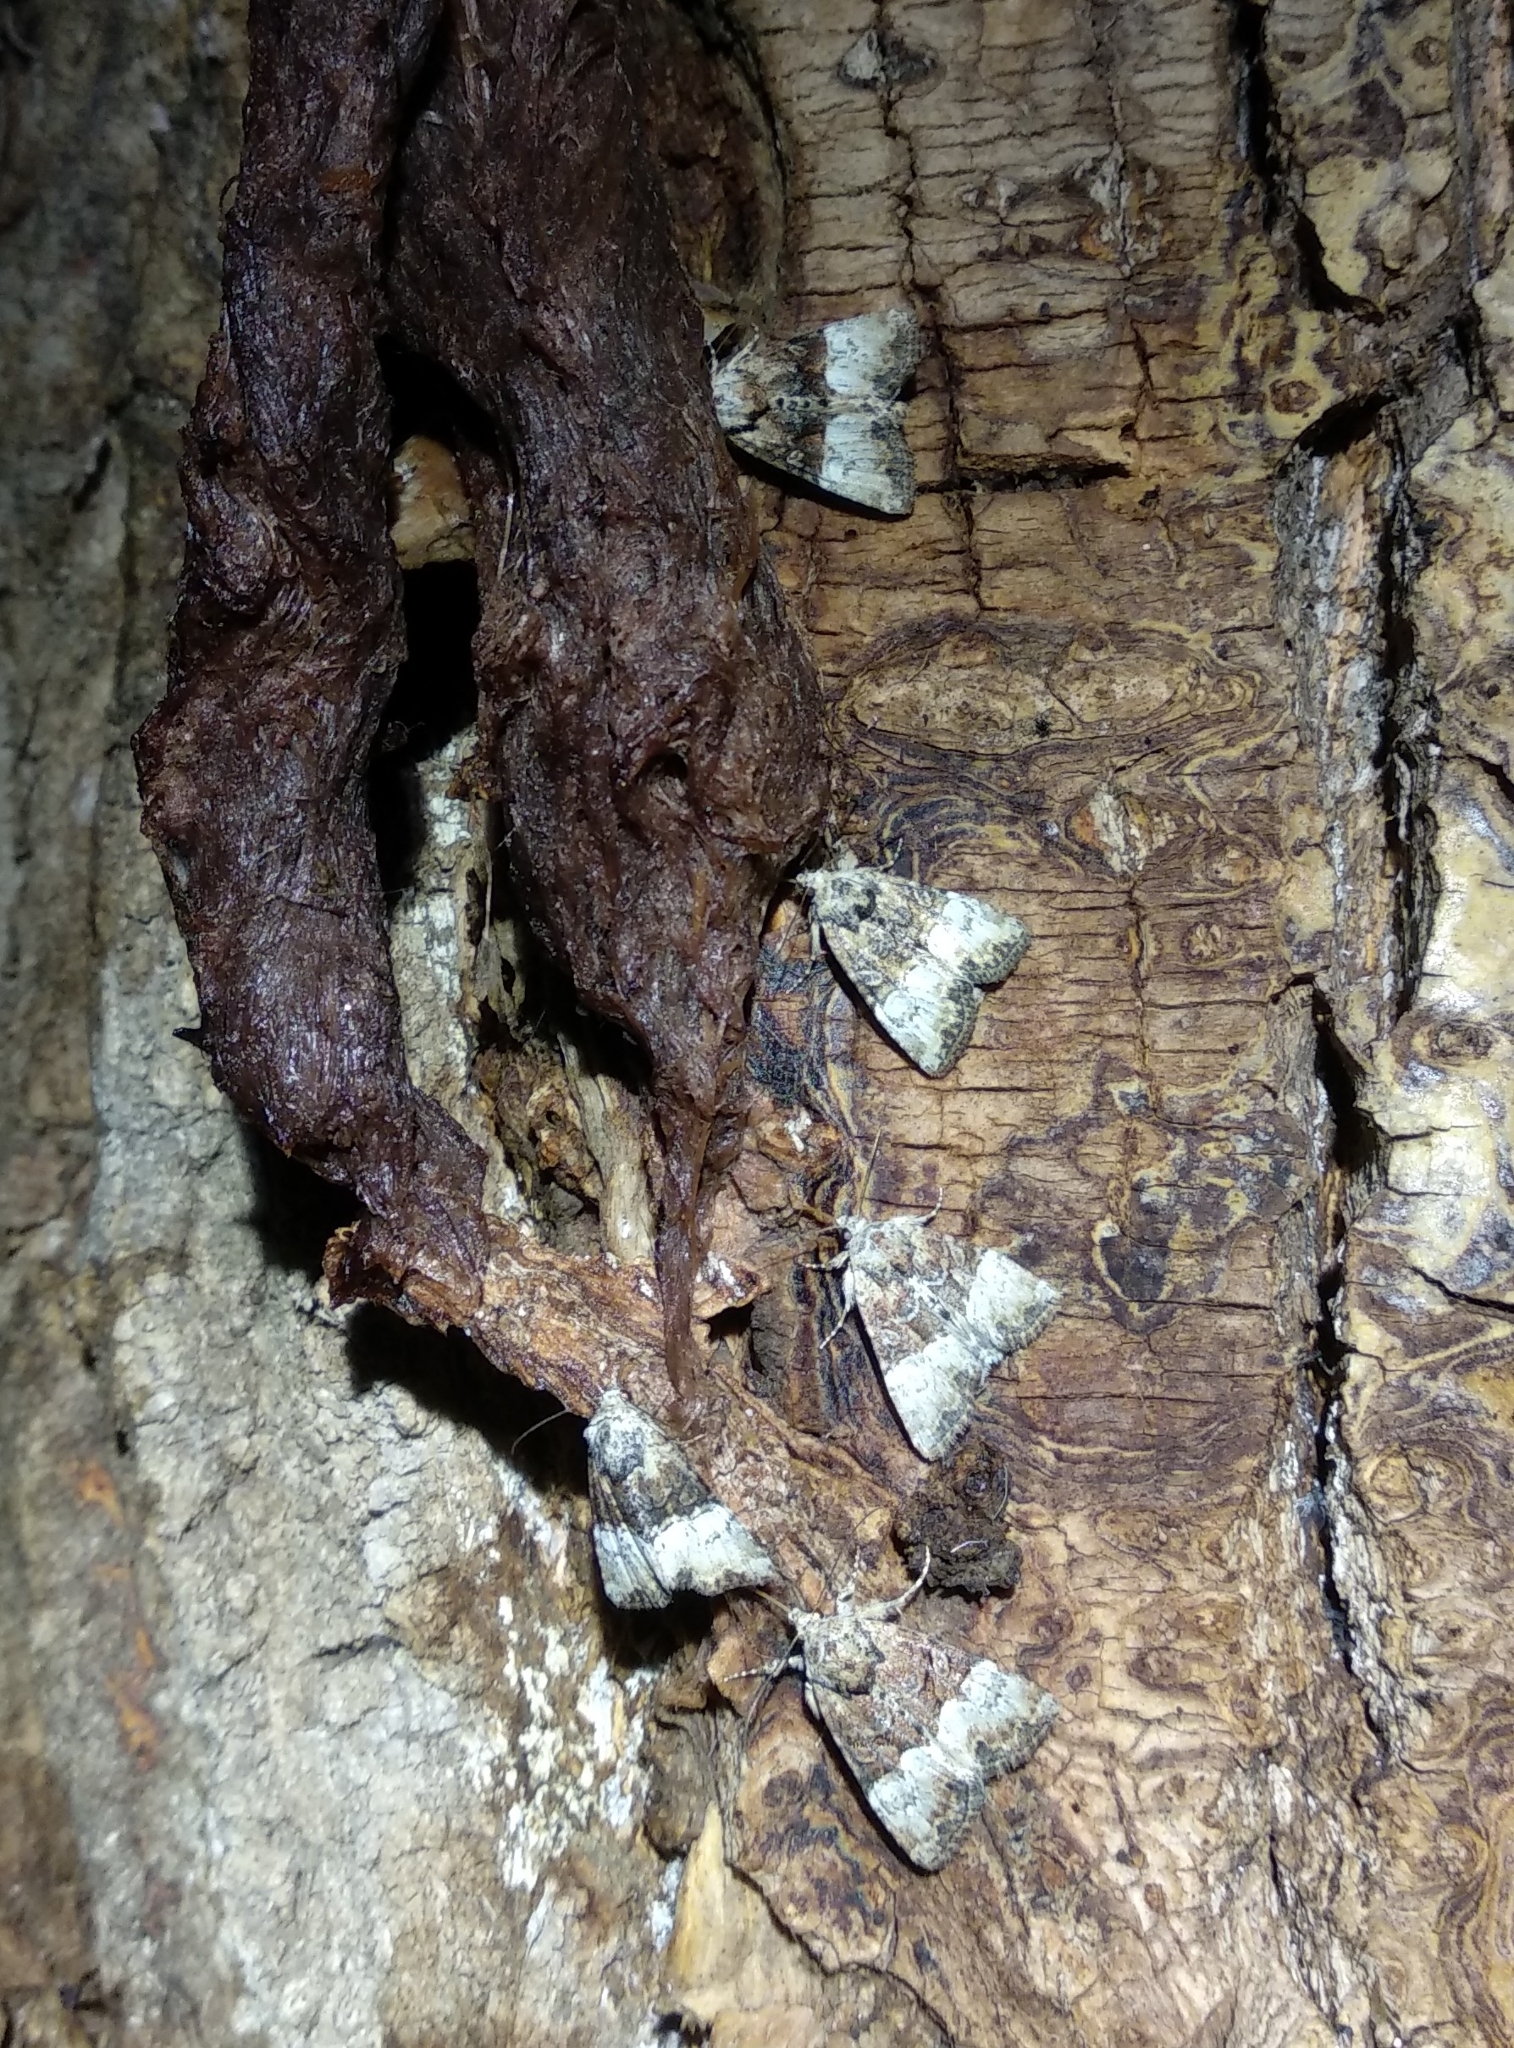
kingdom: Animalia
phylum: Arthropoda
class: Insecta
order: Lepidoptera
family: Noctuidae
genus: Mesoligia
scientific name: Mesoligia furuncula
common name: Cloaked minor
